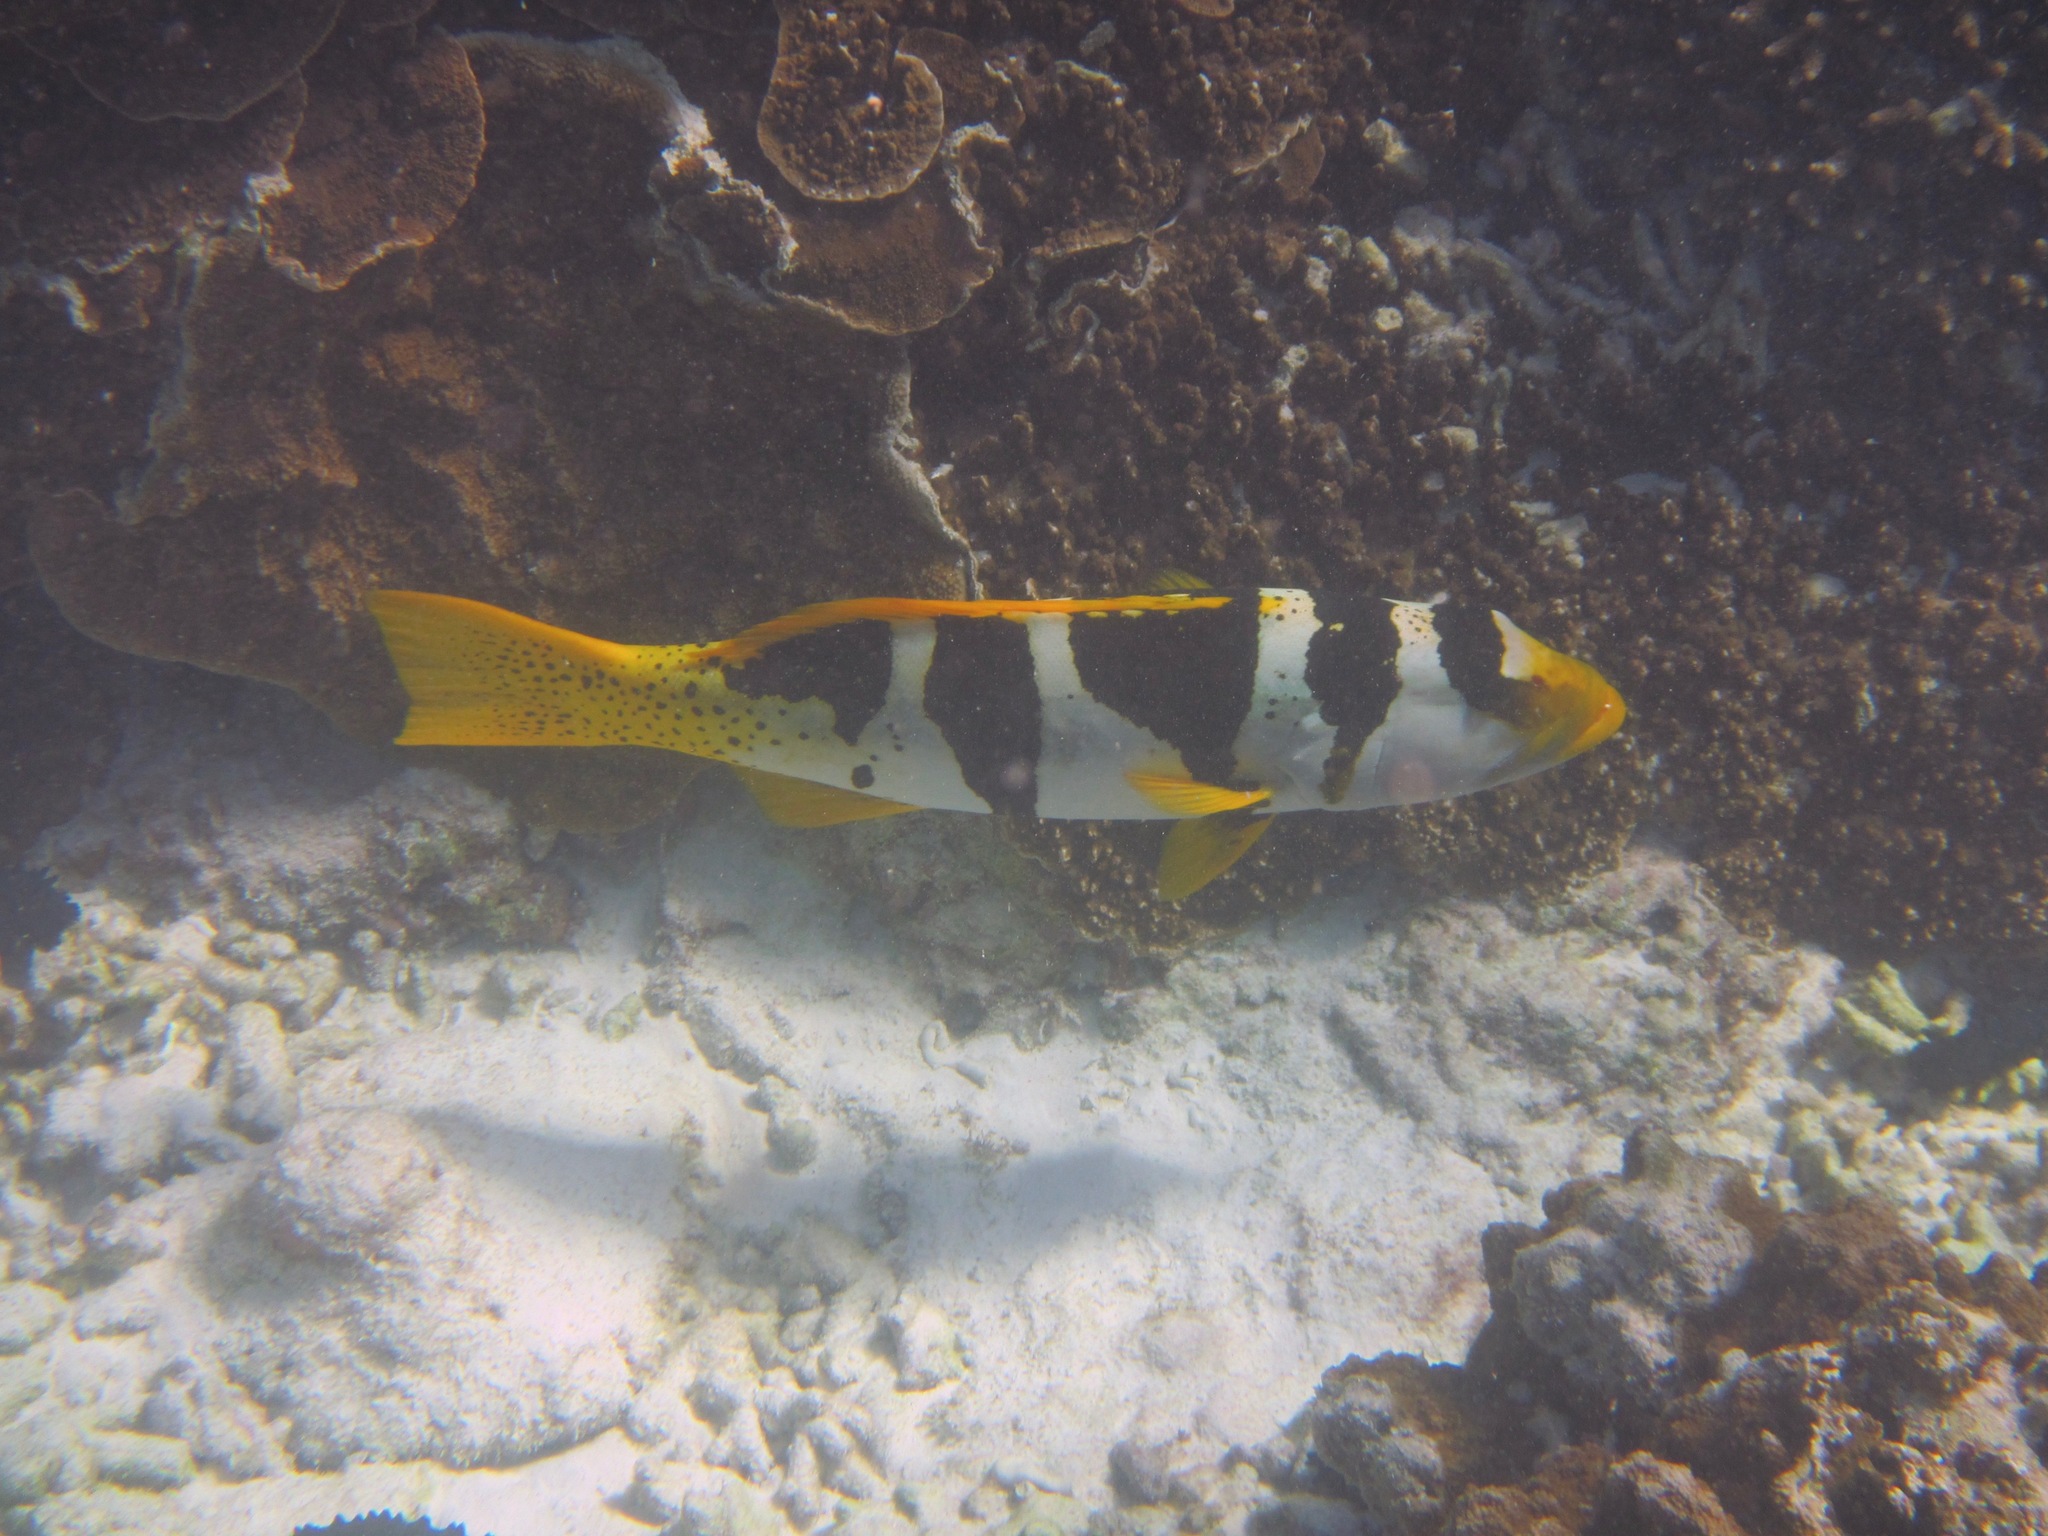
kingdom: Animalia
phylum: Chordata
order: Perciformes
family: Serranidae
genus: Plectropomus
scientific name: Plectropomus laevis
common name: Chinese footballer
